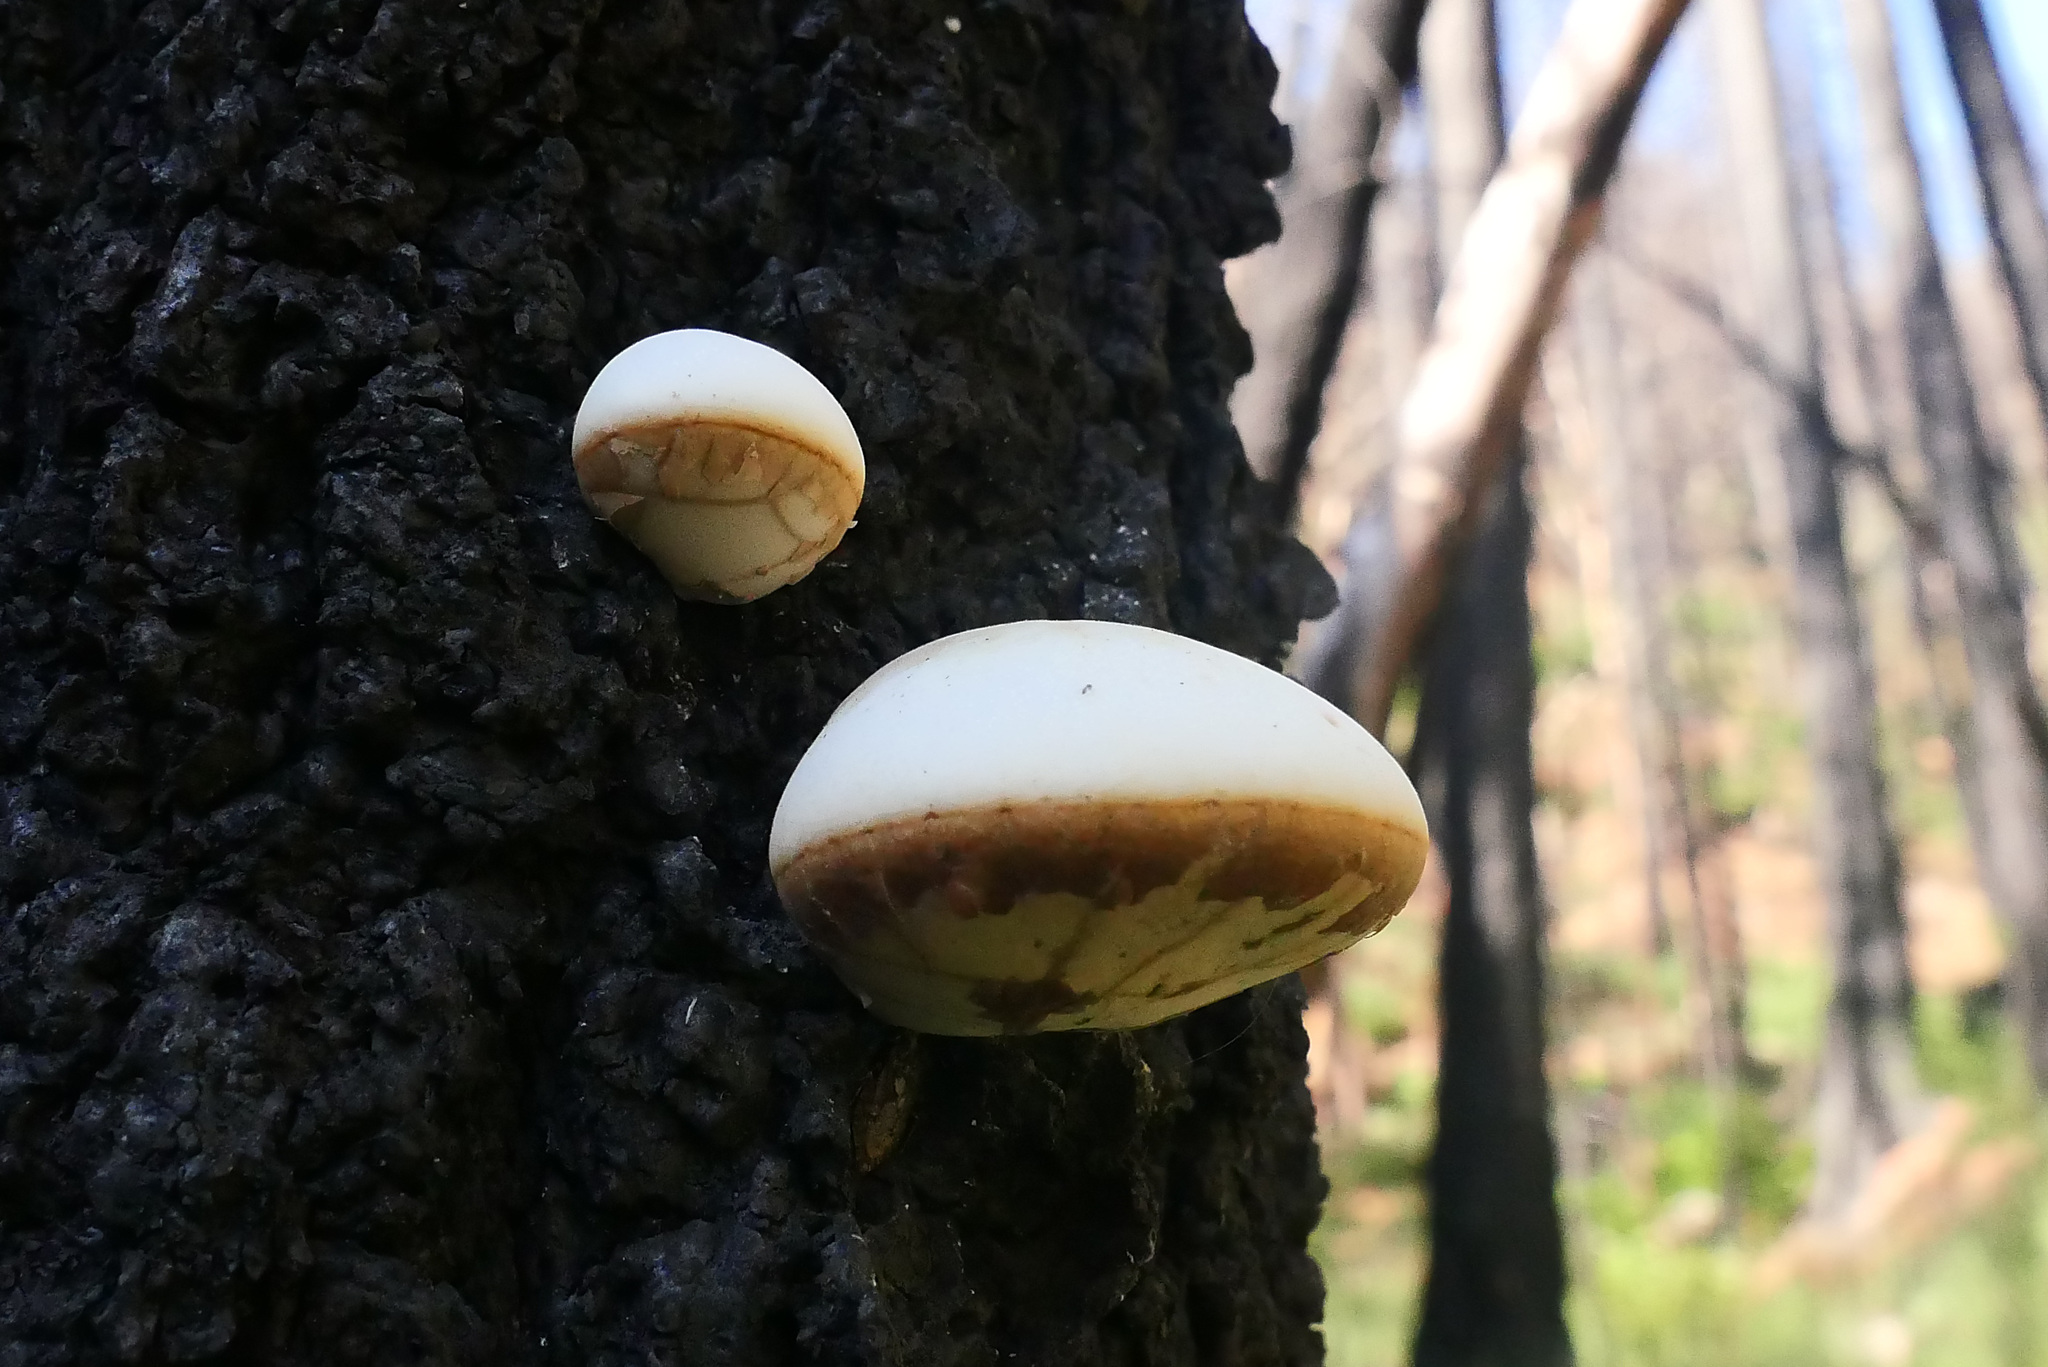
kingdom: Fungi
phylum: Basidiomycota
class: Agaricomycetes
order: Polyporales
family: Polyporaceae
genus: Cryptoporus
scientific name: Cryptoporus volvatus
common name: Veiled polypore
